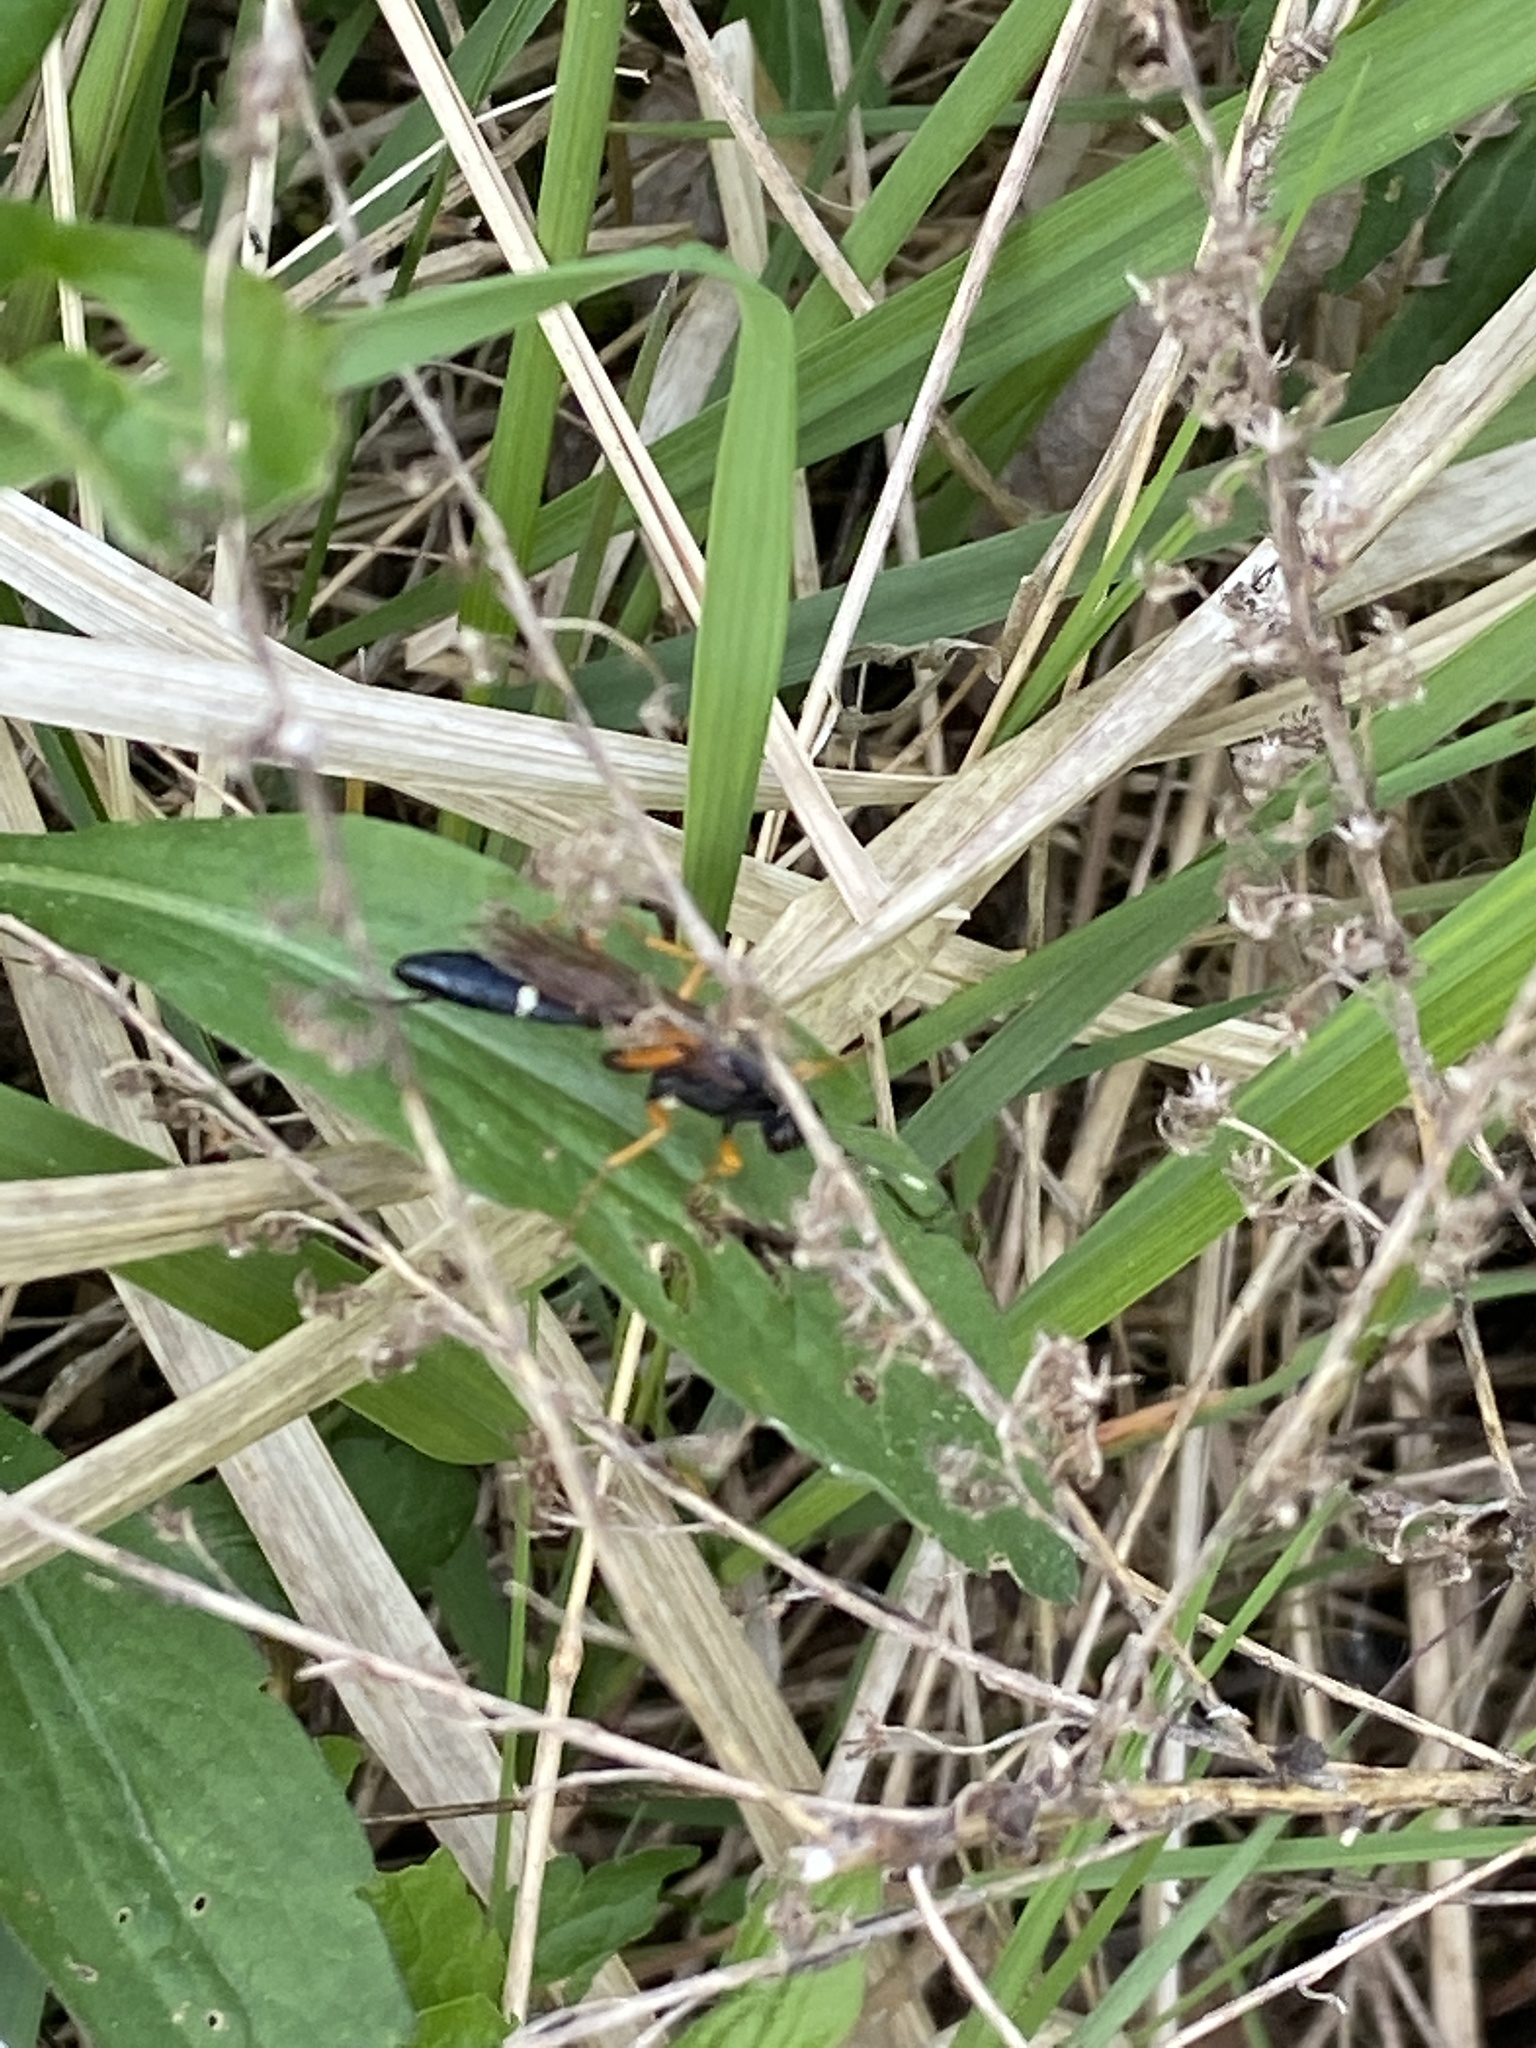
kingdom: Animalia
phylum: Arthropoda
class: Insecta
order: Hymenoptera
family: Ichneumonidae
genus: Diphyus
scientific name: Diphyus quadripunctorius
